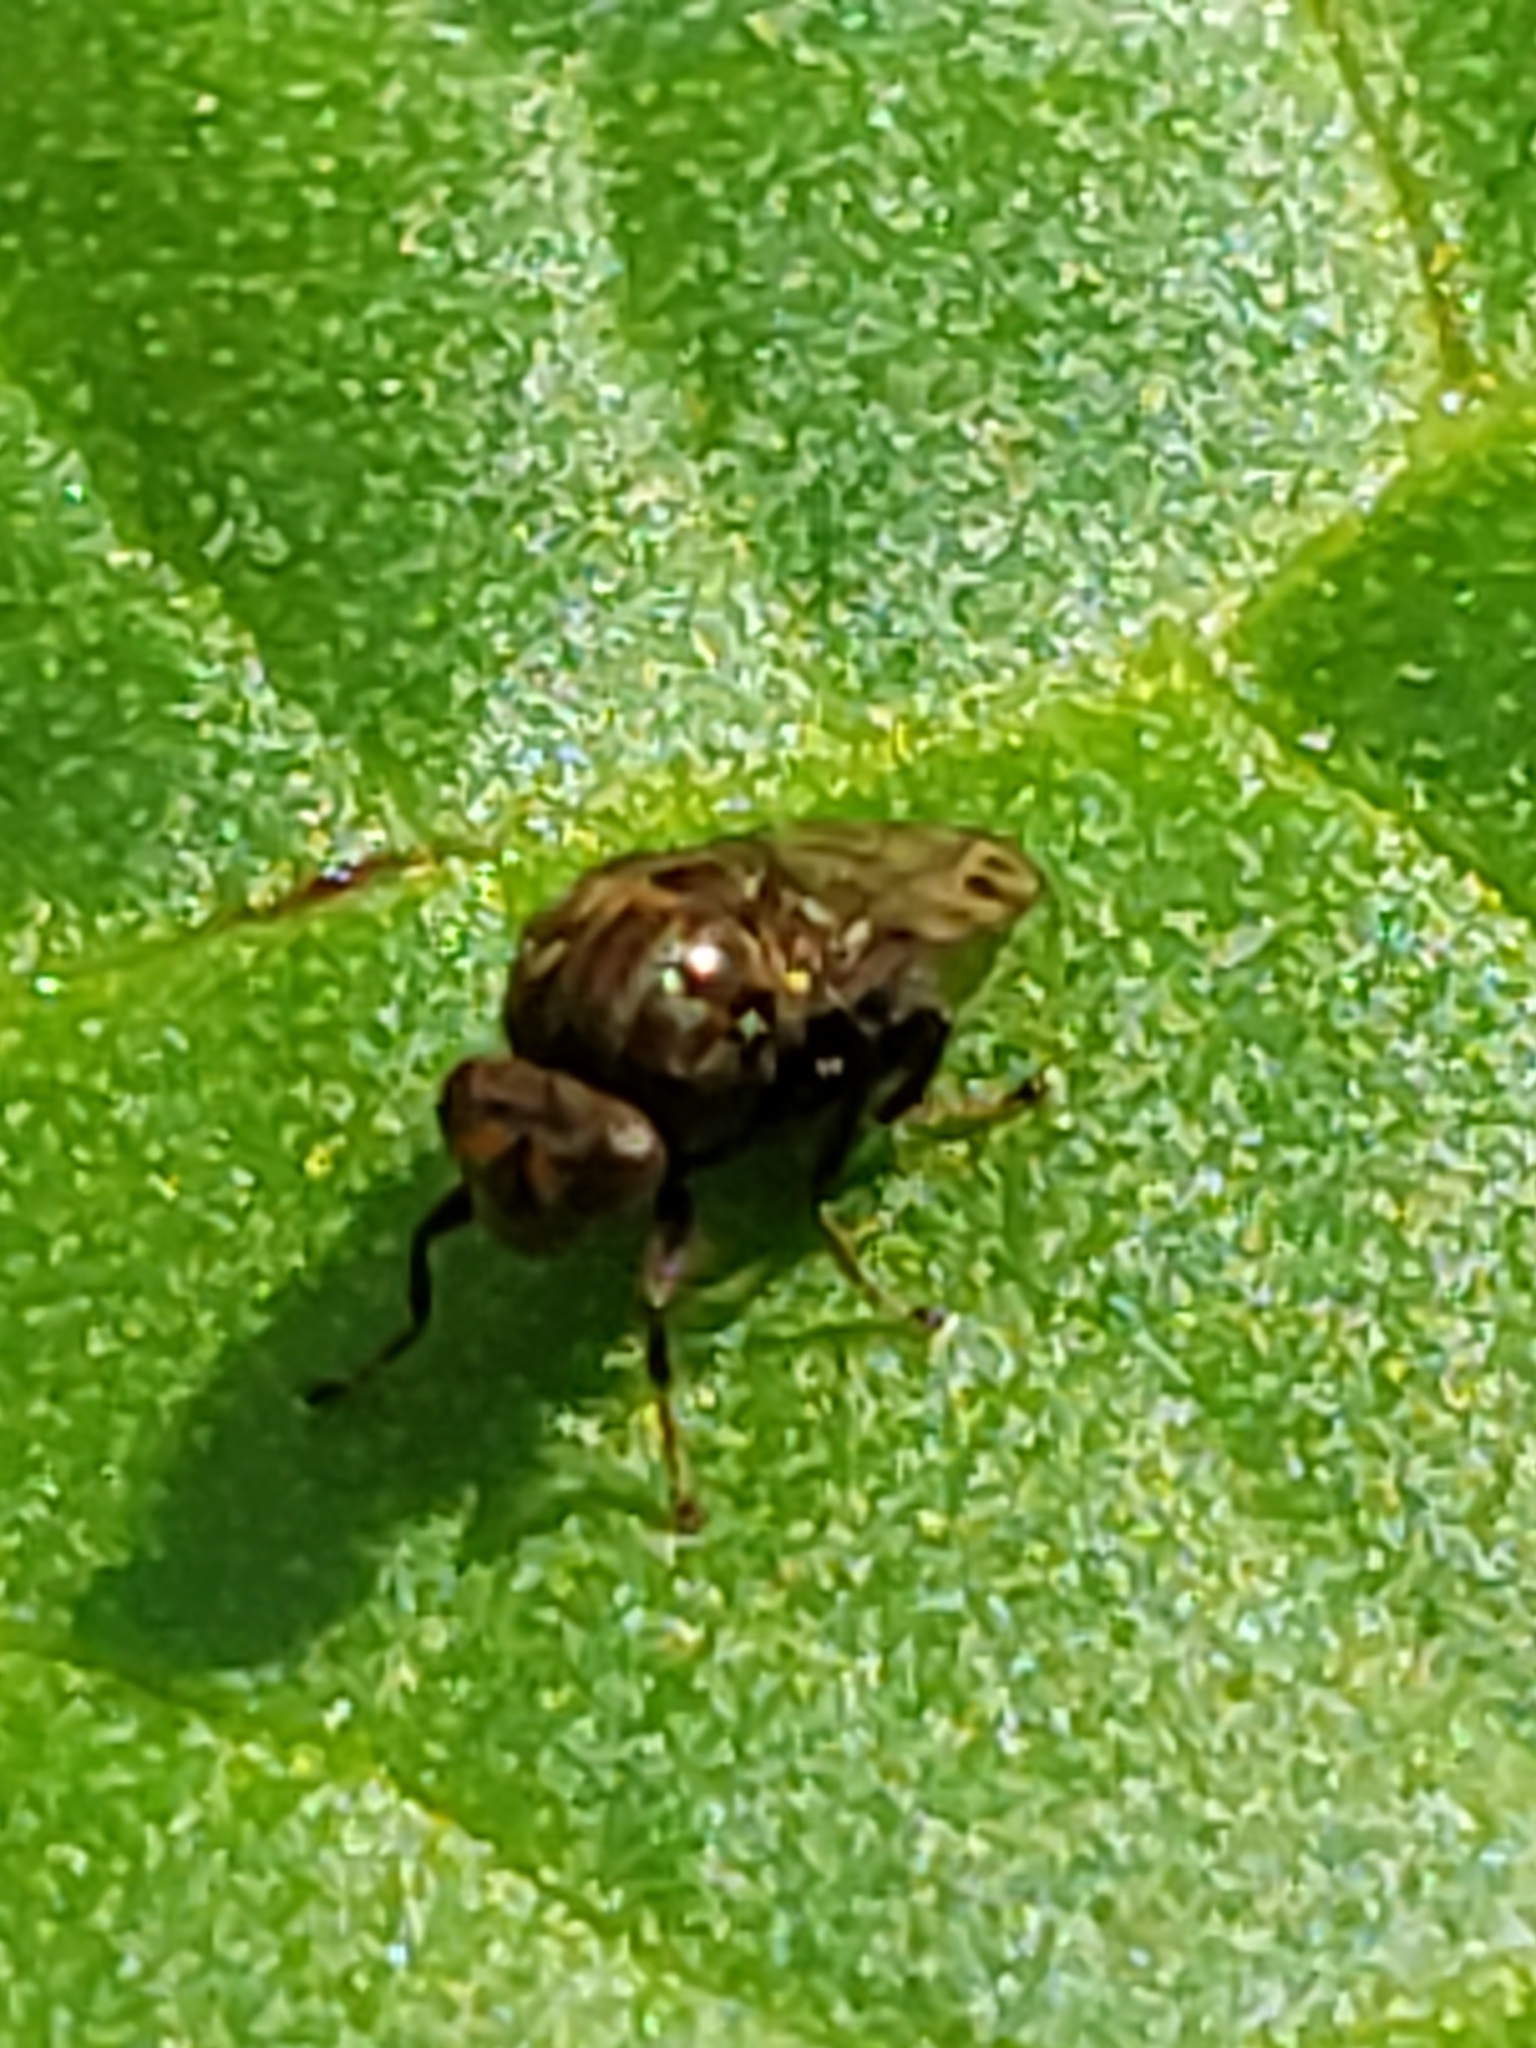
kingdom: Animalia
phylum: Arthropoda
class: Insecta
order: Diptera
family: Ephydridae
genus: Gastrops
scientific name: Gastrops nebulosus
